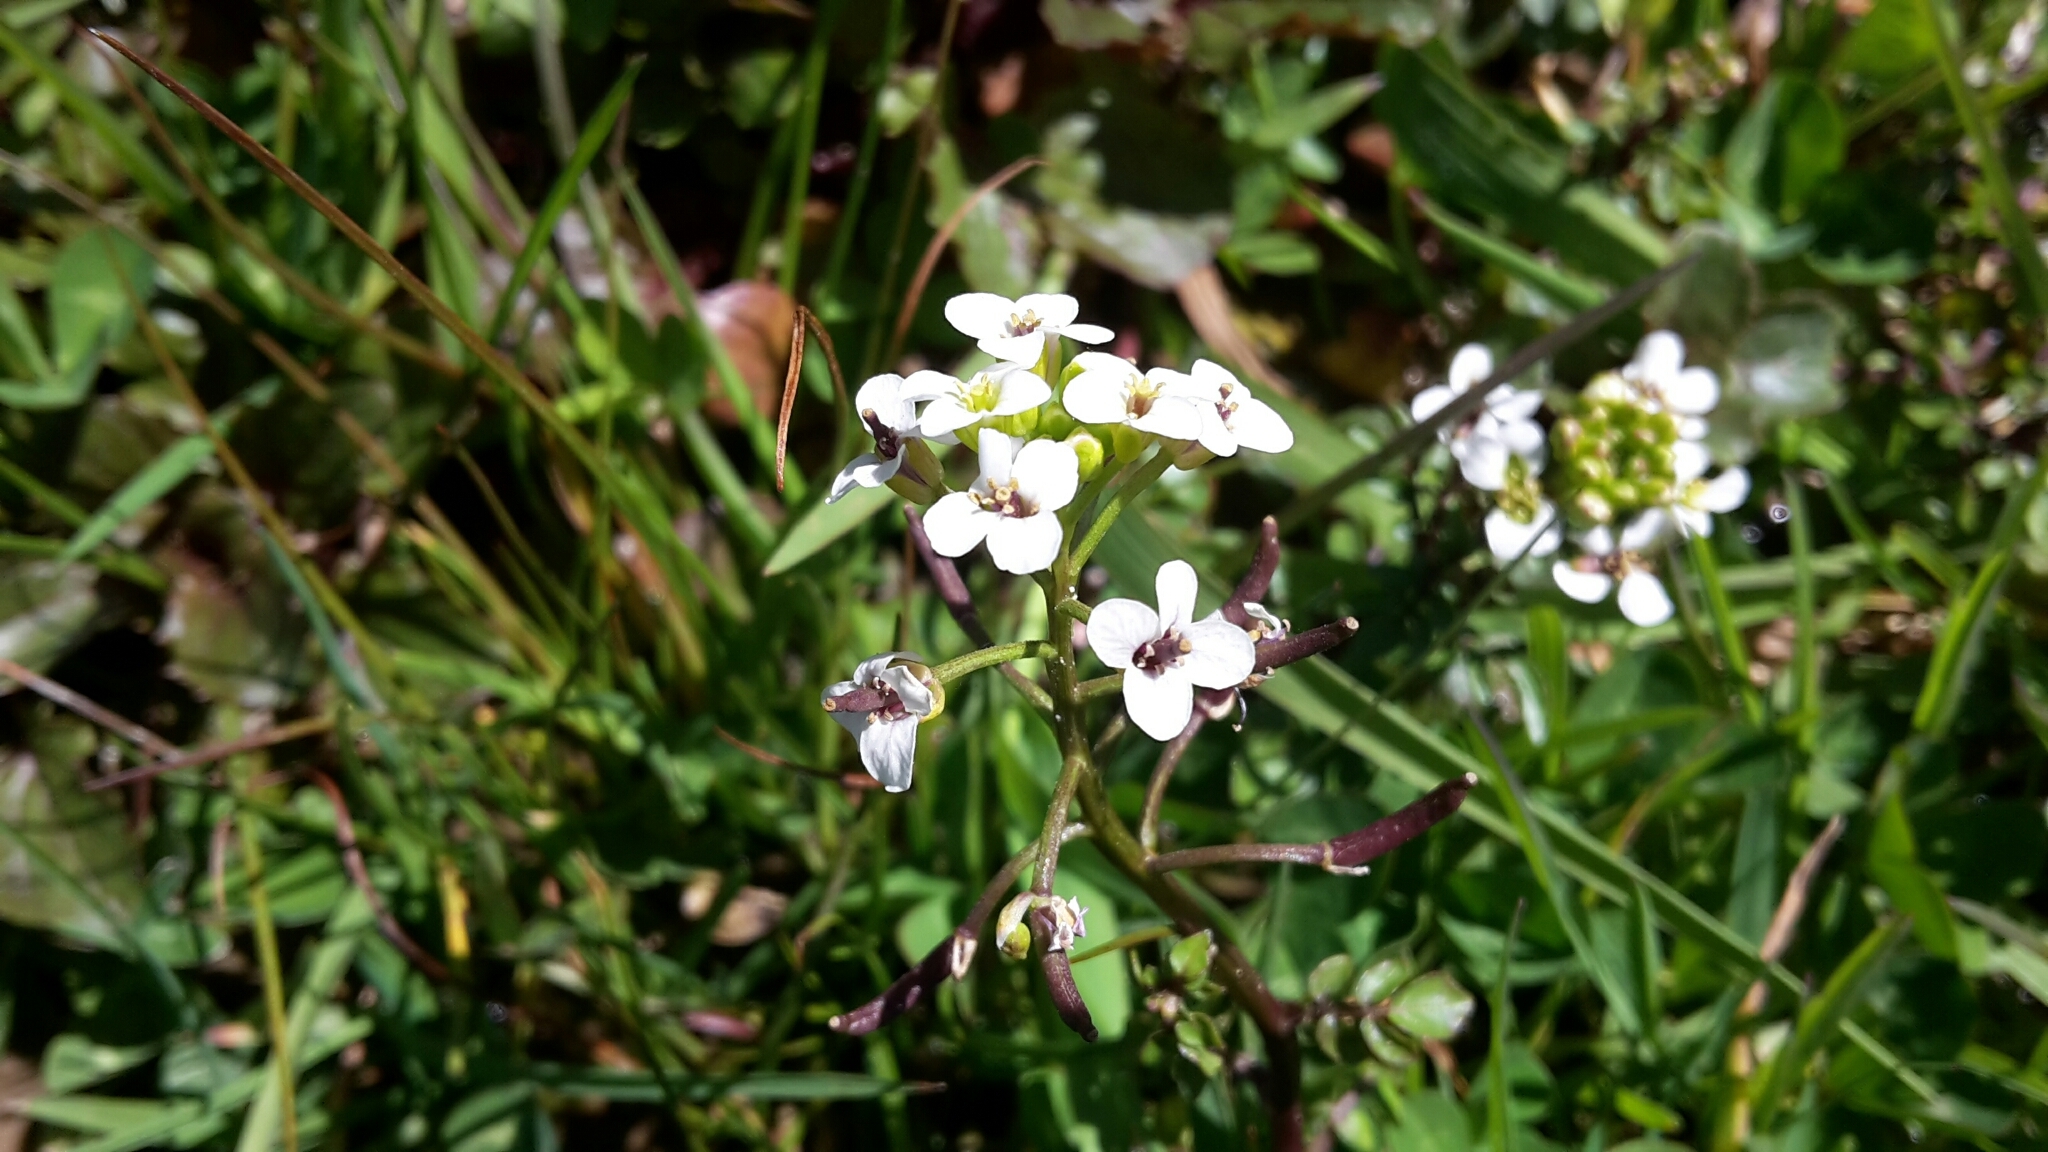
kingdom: Plantae
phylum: Tracheophyta
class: Magnoliopsida
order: Brassicales
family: Brassicaceae
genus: Nasturtium
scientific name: Nasturtium officinale
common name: Watercress
